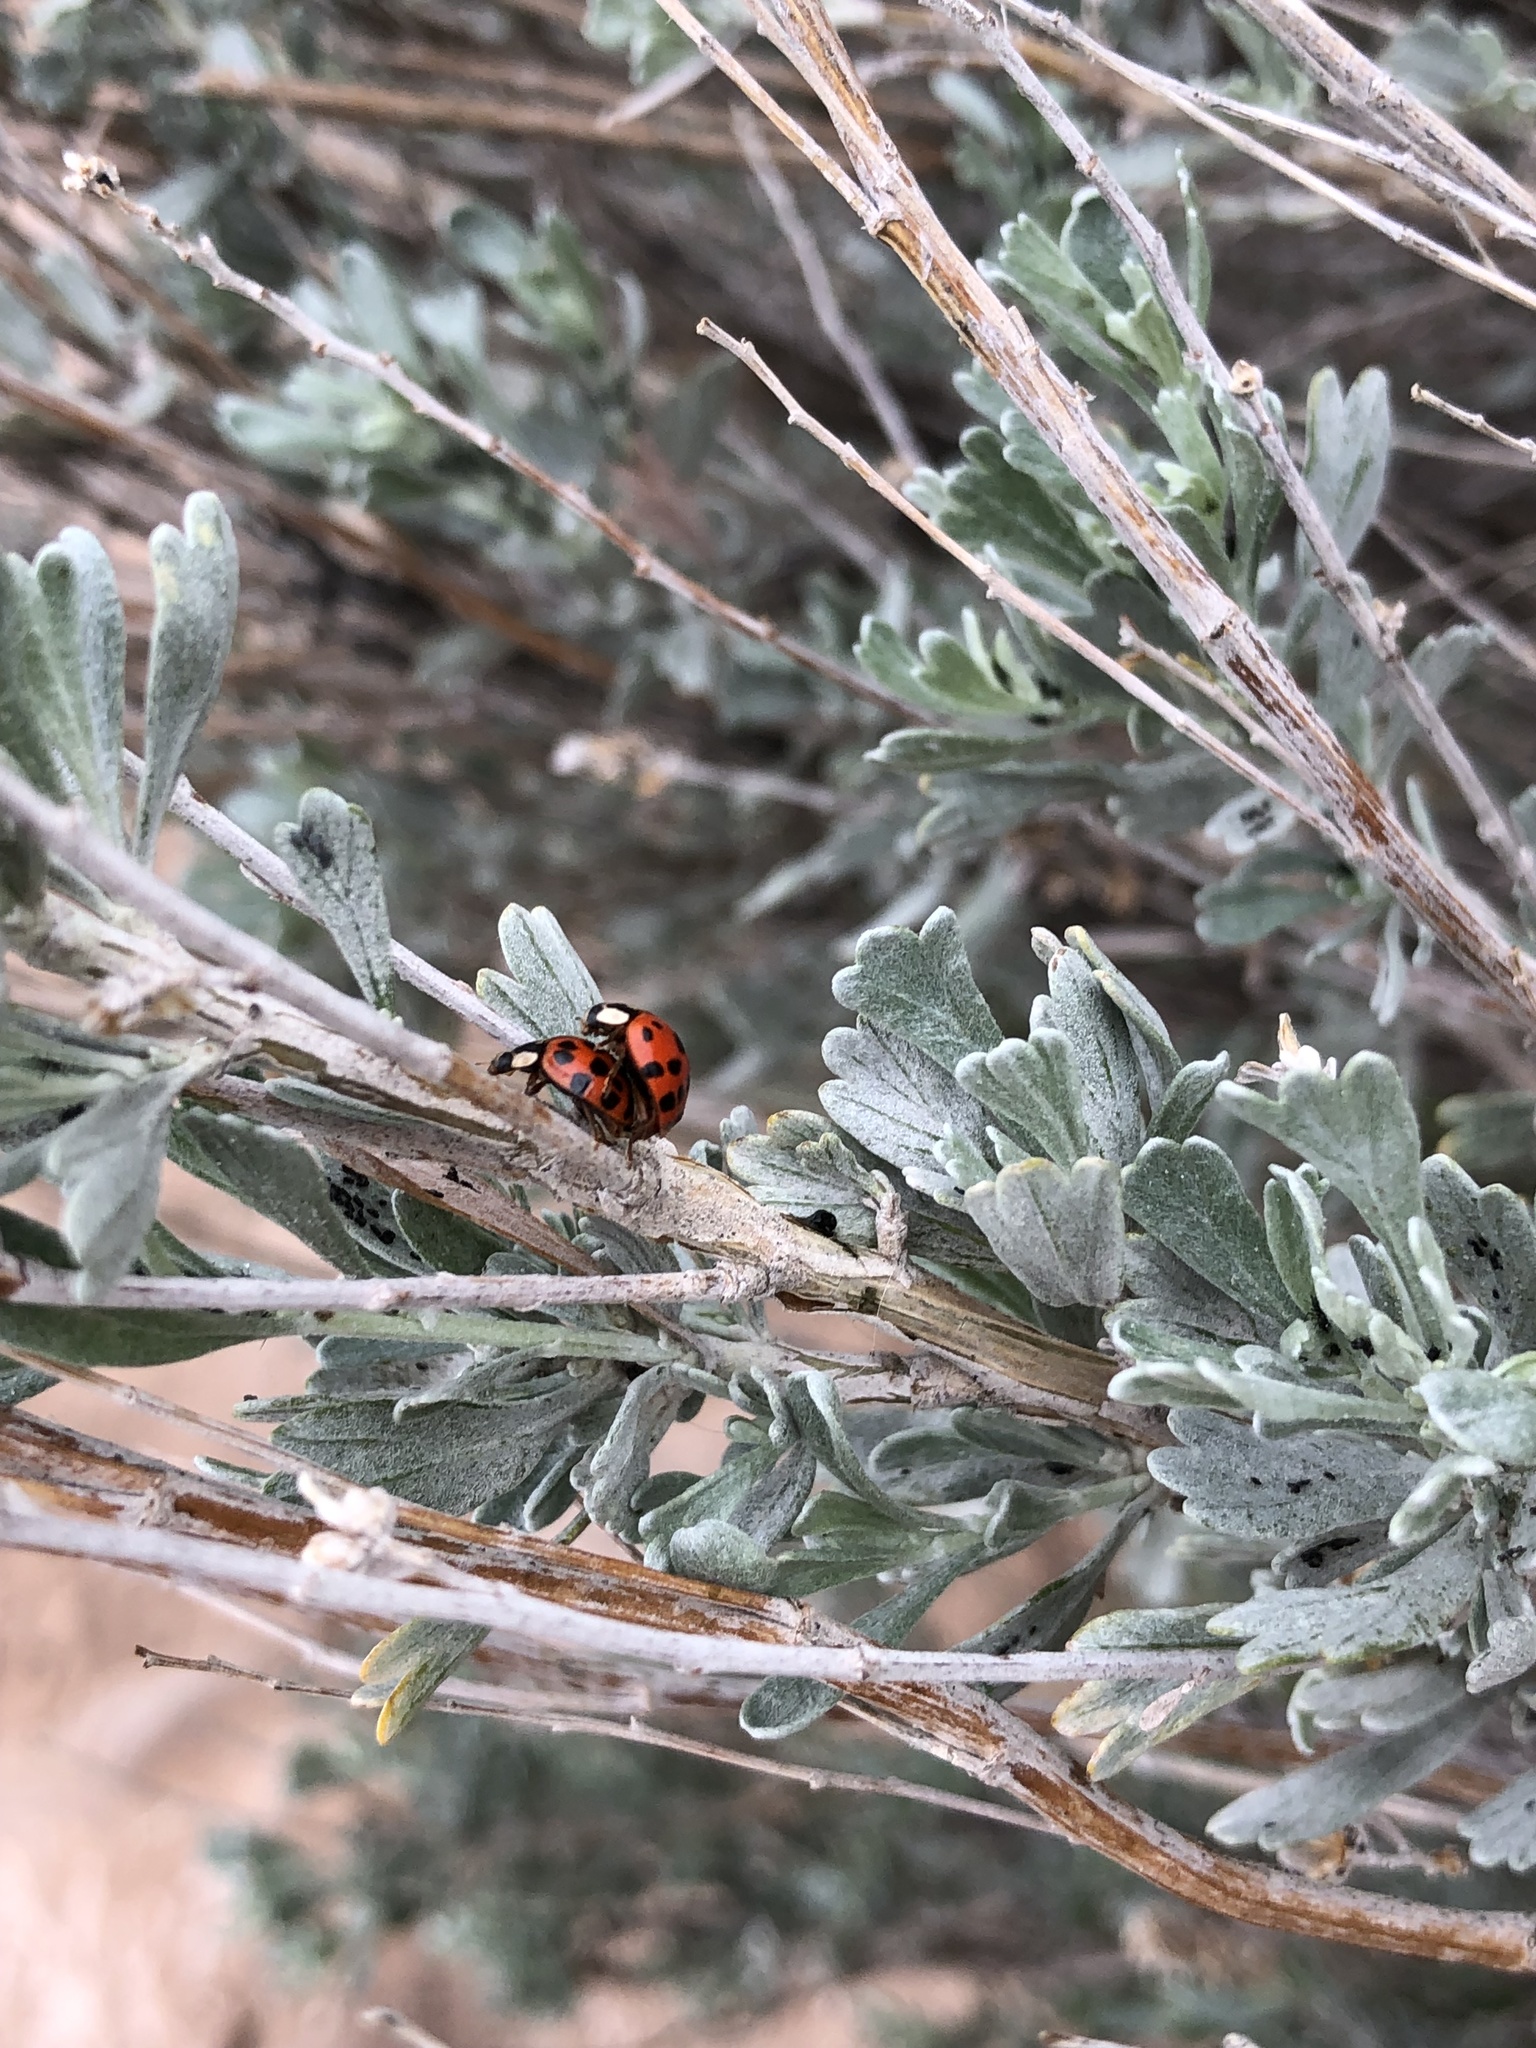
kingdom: Animalia
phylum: Arthropoda
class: Insecta
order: Coleoptera
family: Coccinellidae
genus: Harmonia
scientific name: Harmonia axyridis
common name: Harlequin ladybird
